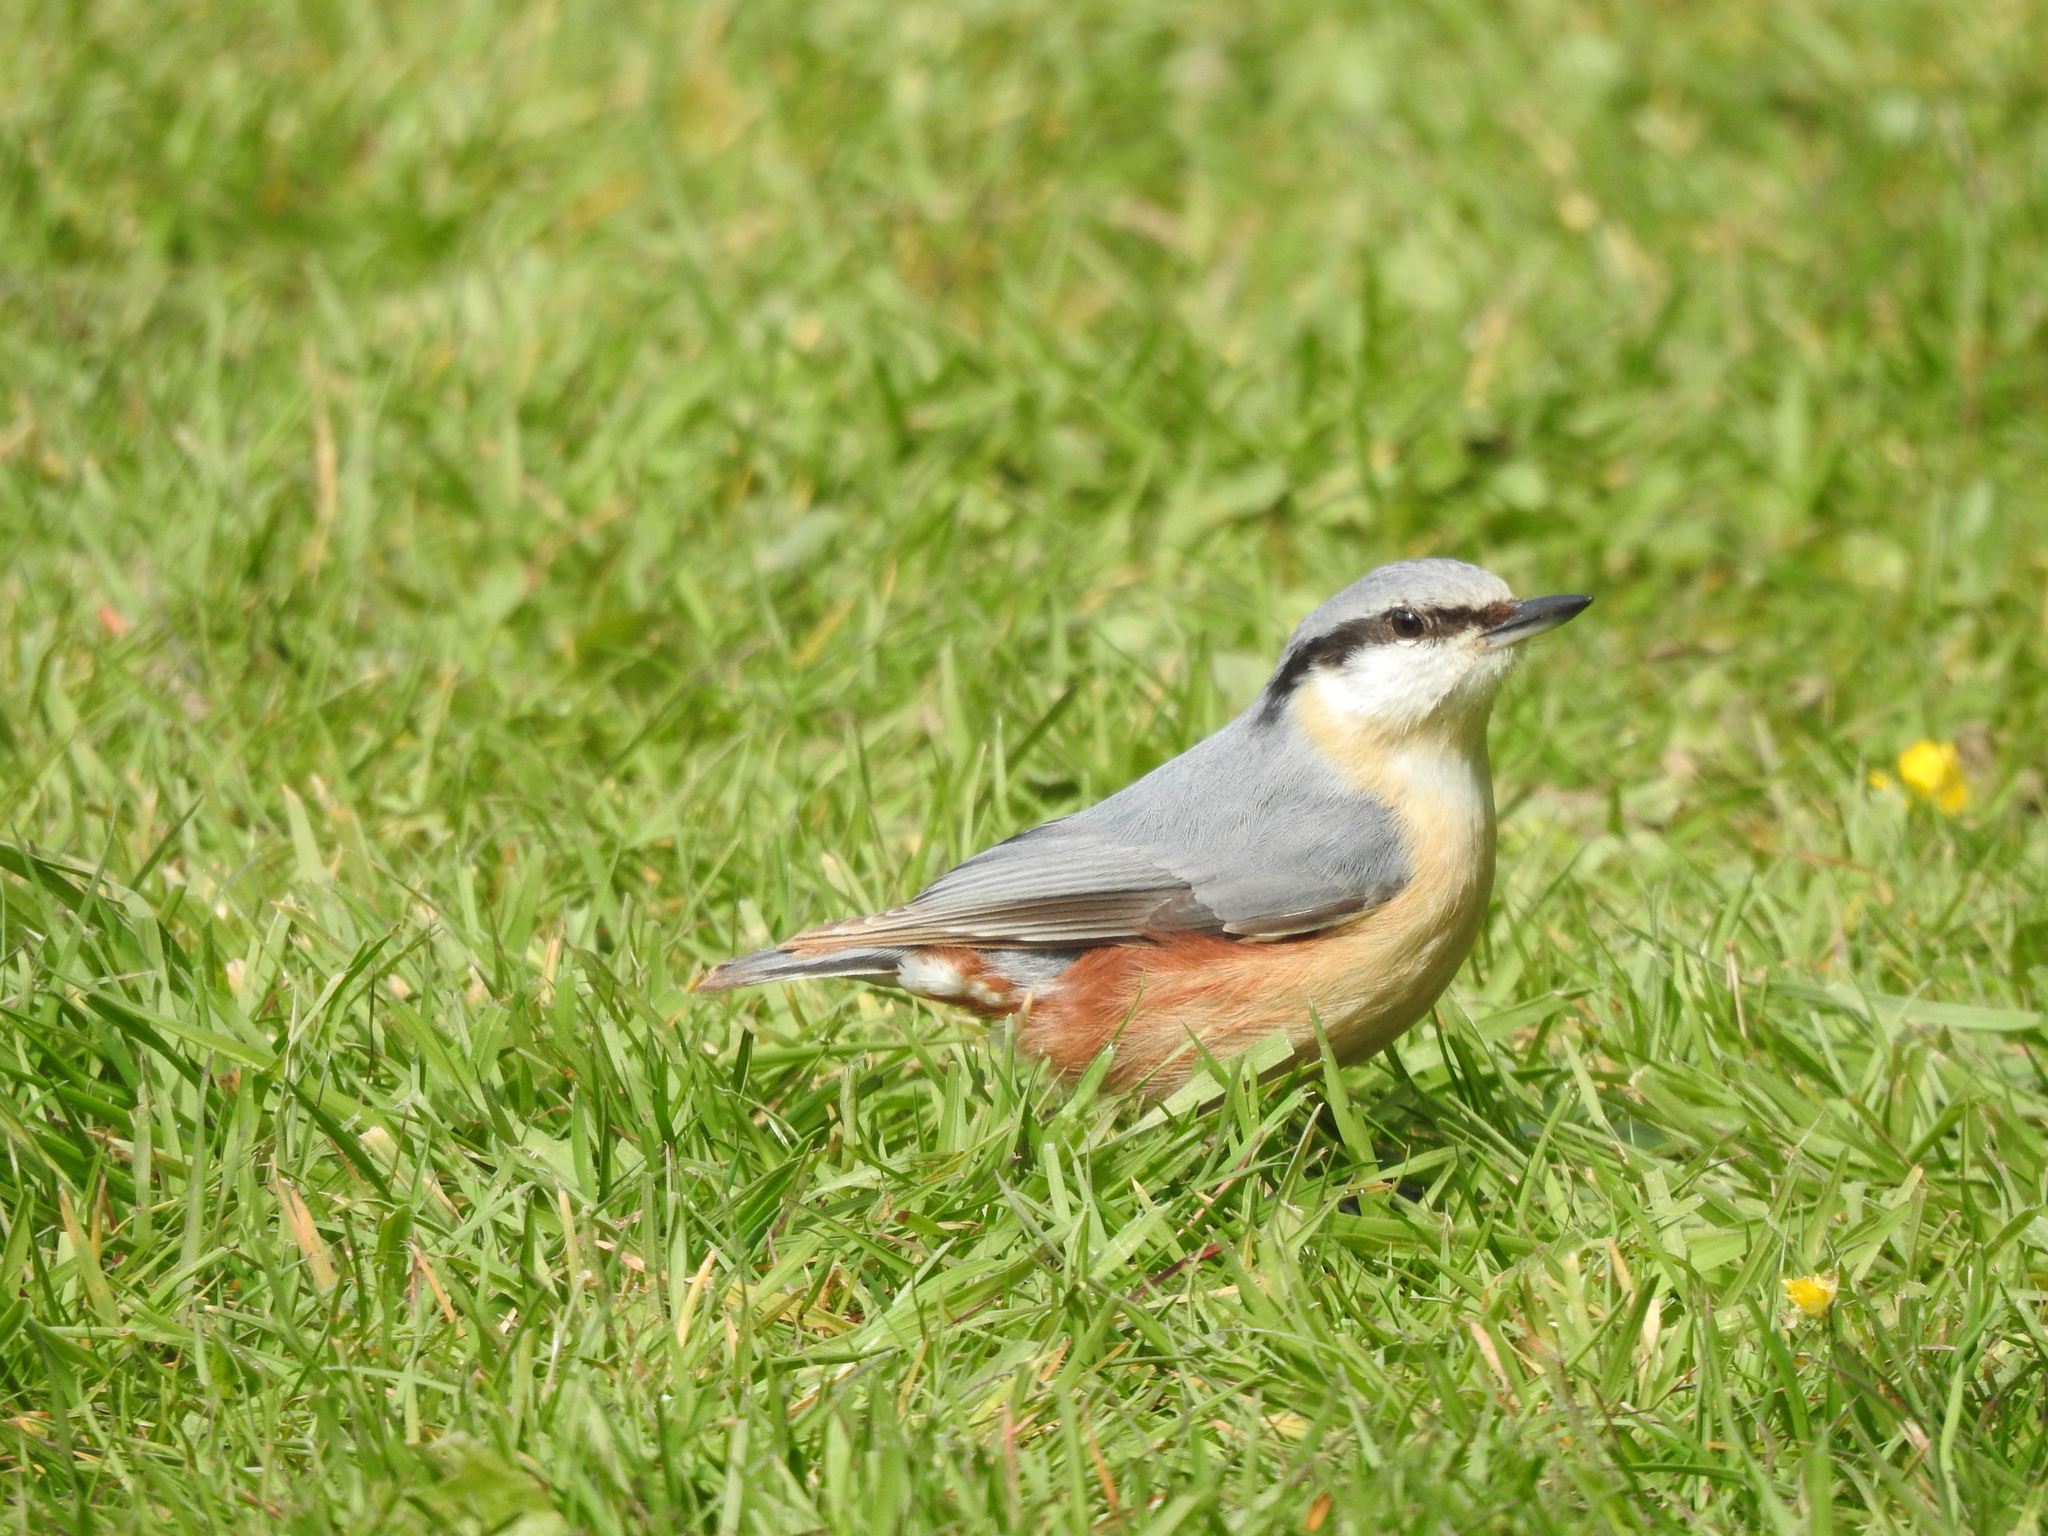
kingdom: Animalia
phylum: Chordata
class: Aves
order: Passeriformes
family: Sittidae
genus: Sitta
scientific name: Sitta europaea
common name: Eurasian nuthatch
